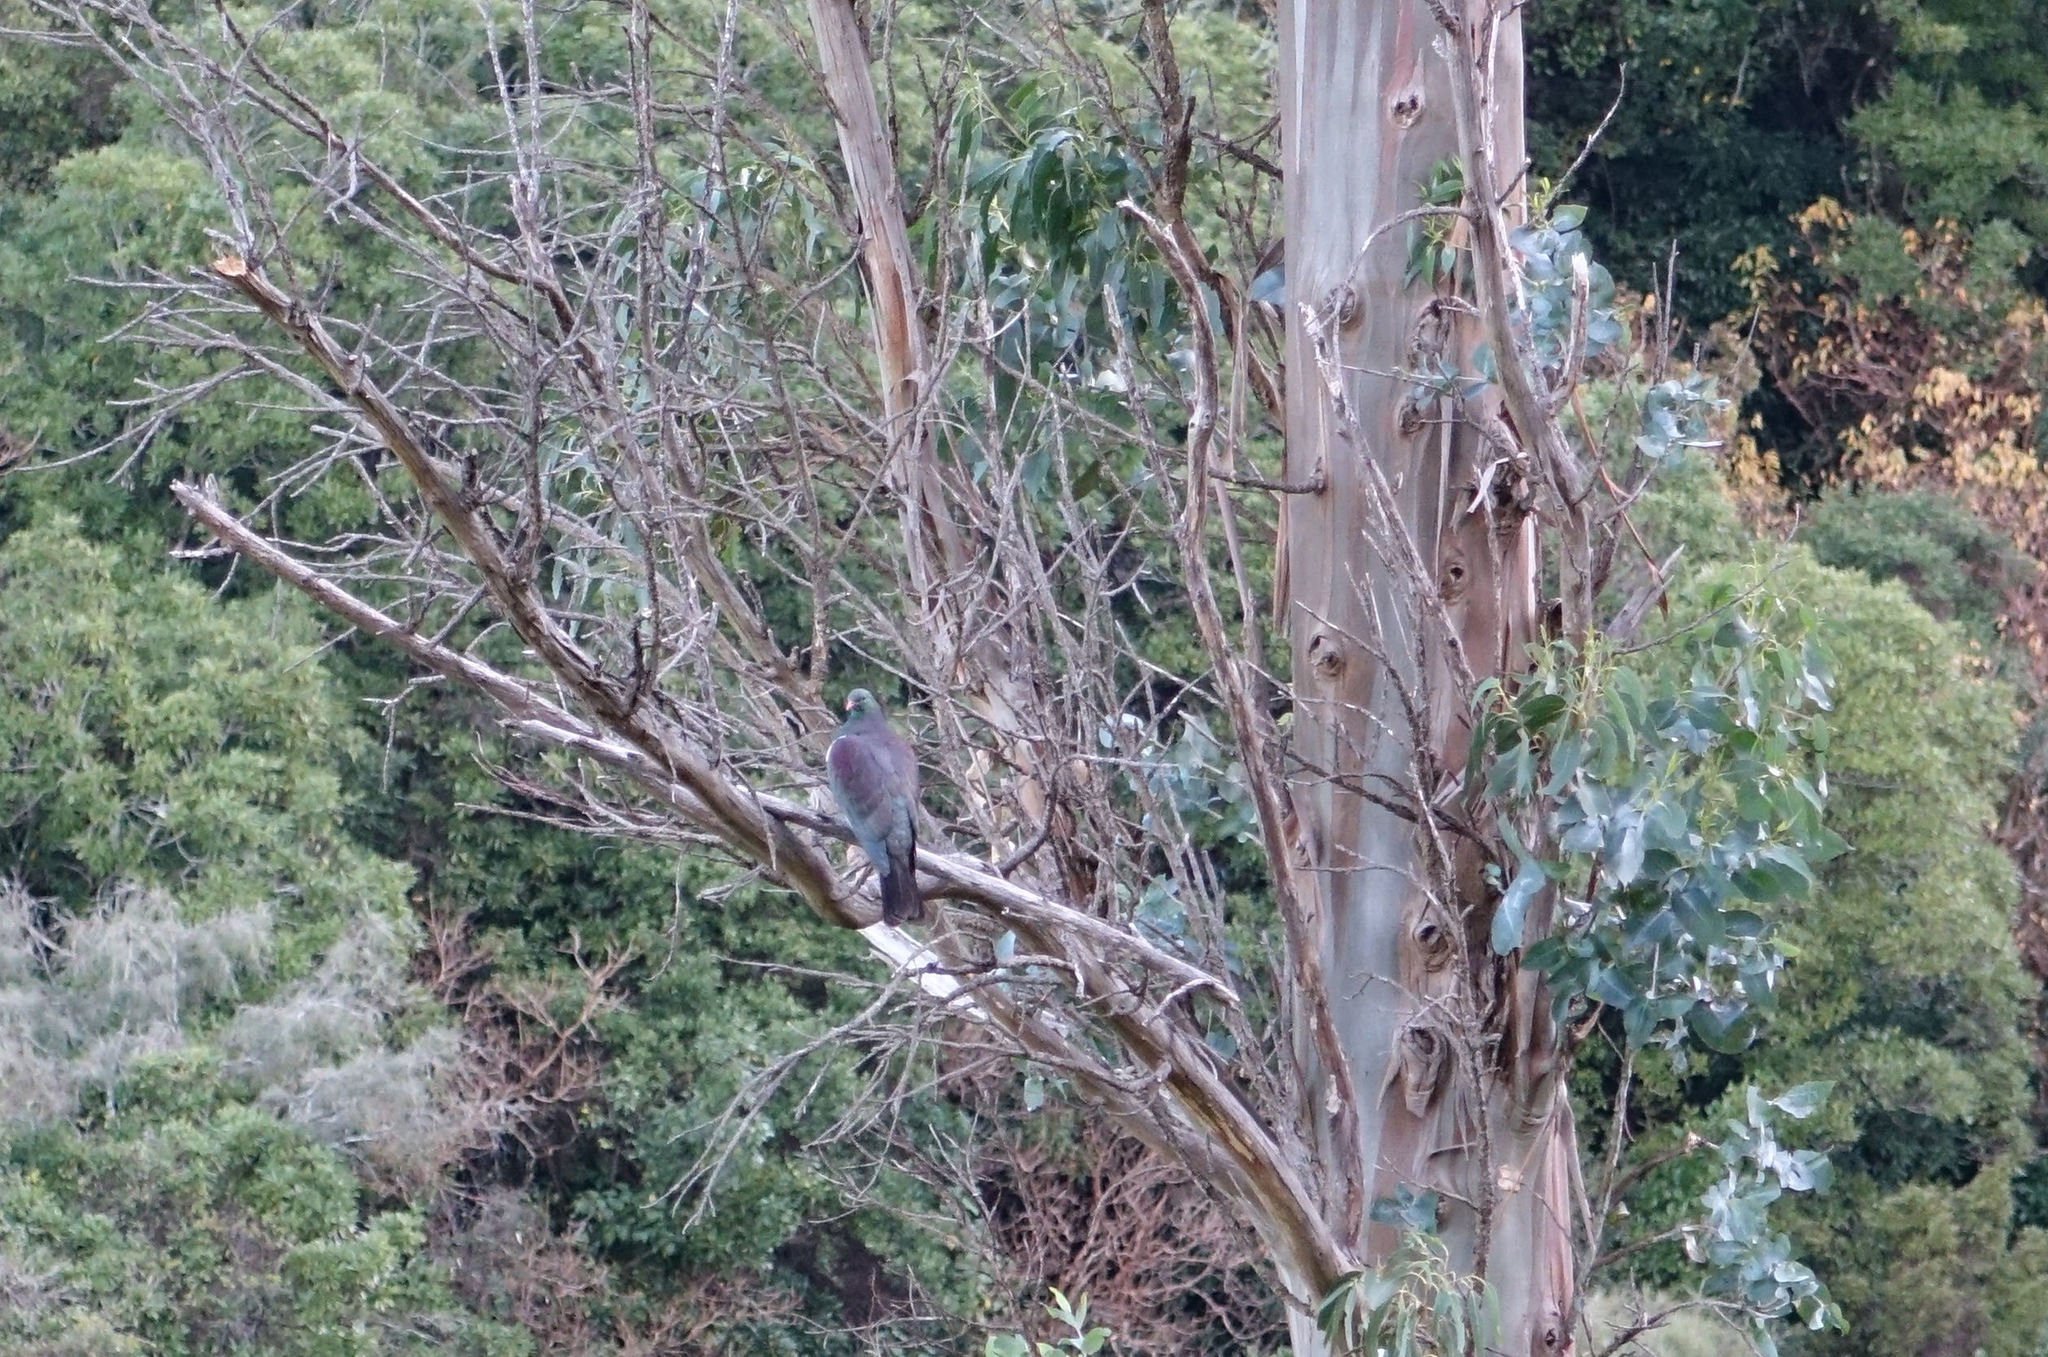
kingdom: Animalia
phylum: Chordata
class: Aves
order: Columbiformes
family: Columbidae
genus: Hemiphaga
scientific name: Hemiphaga novaeseelandiae
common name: New zealand pigeon
